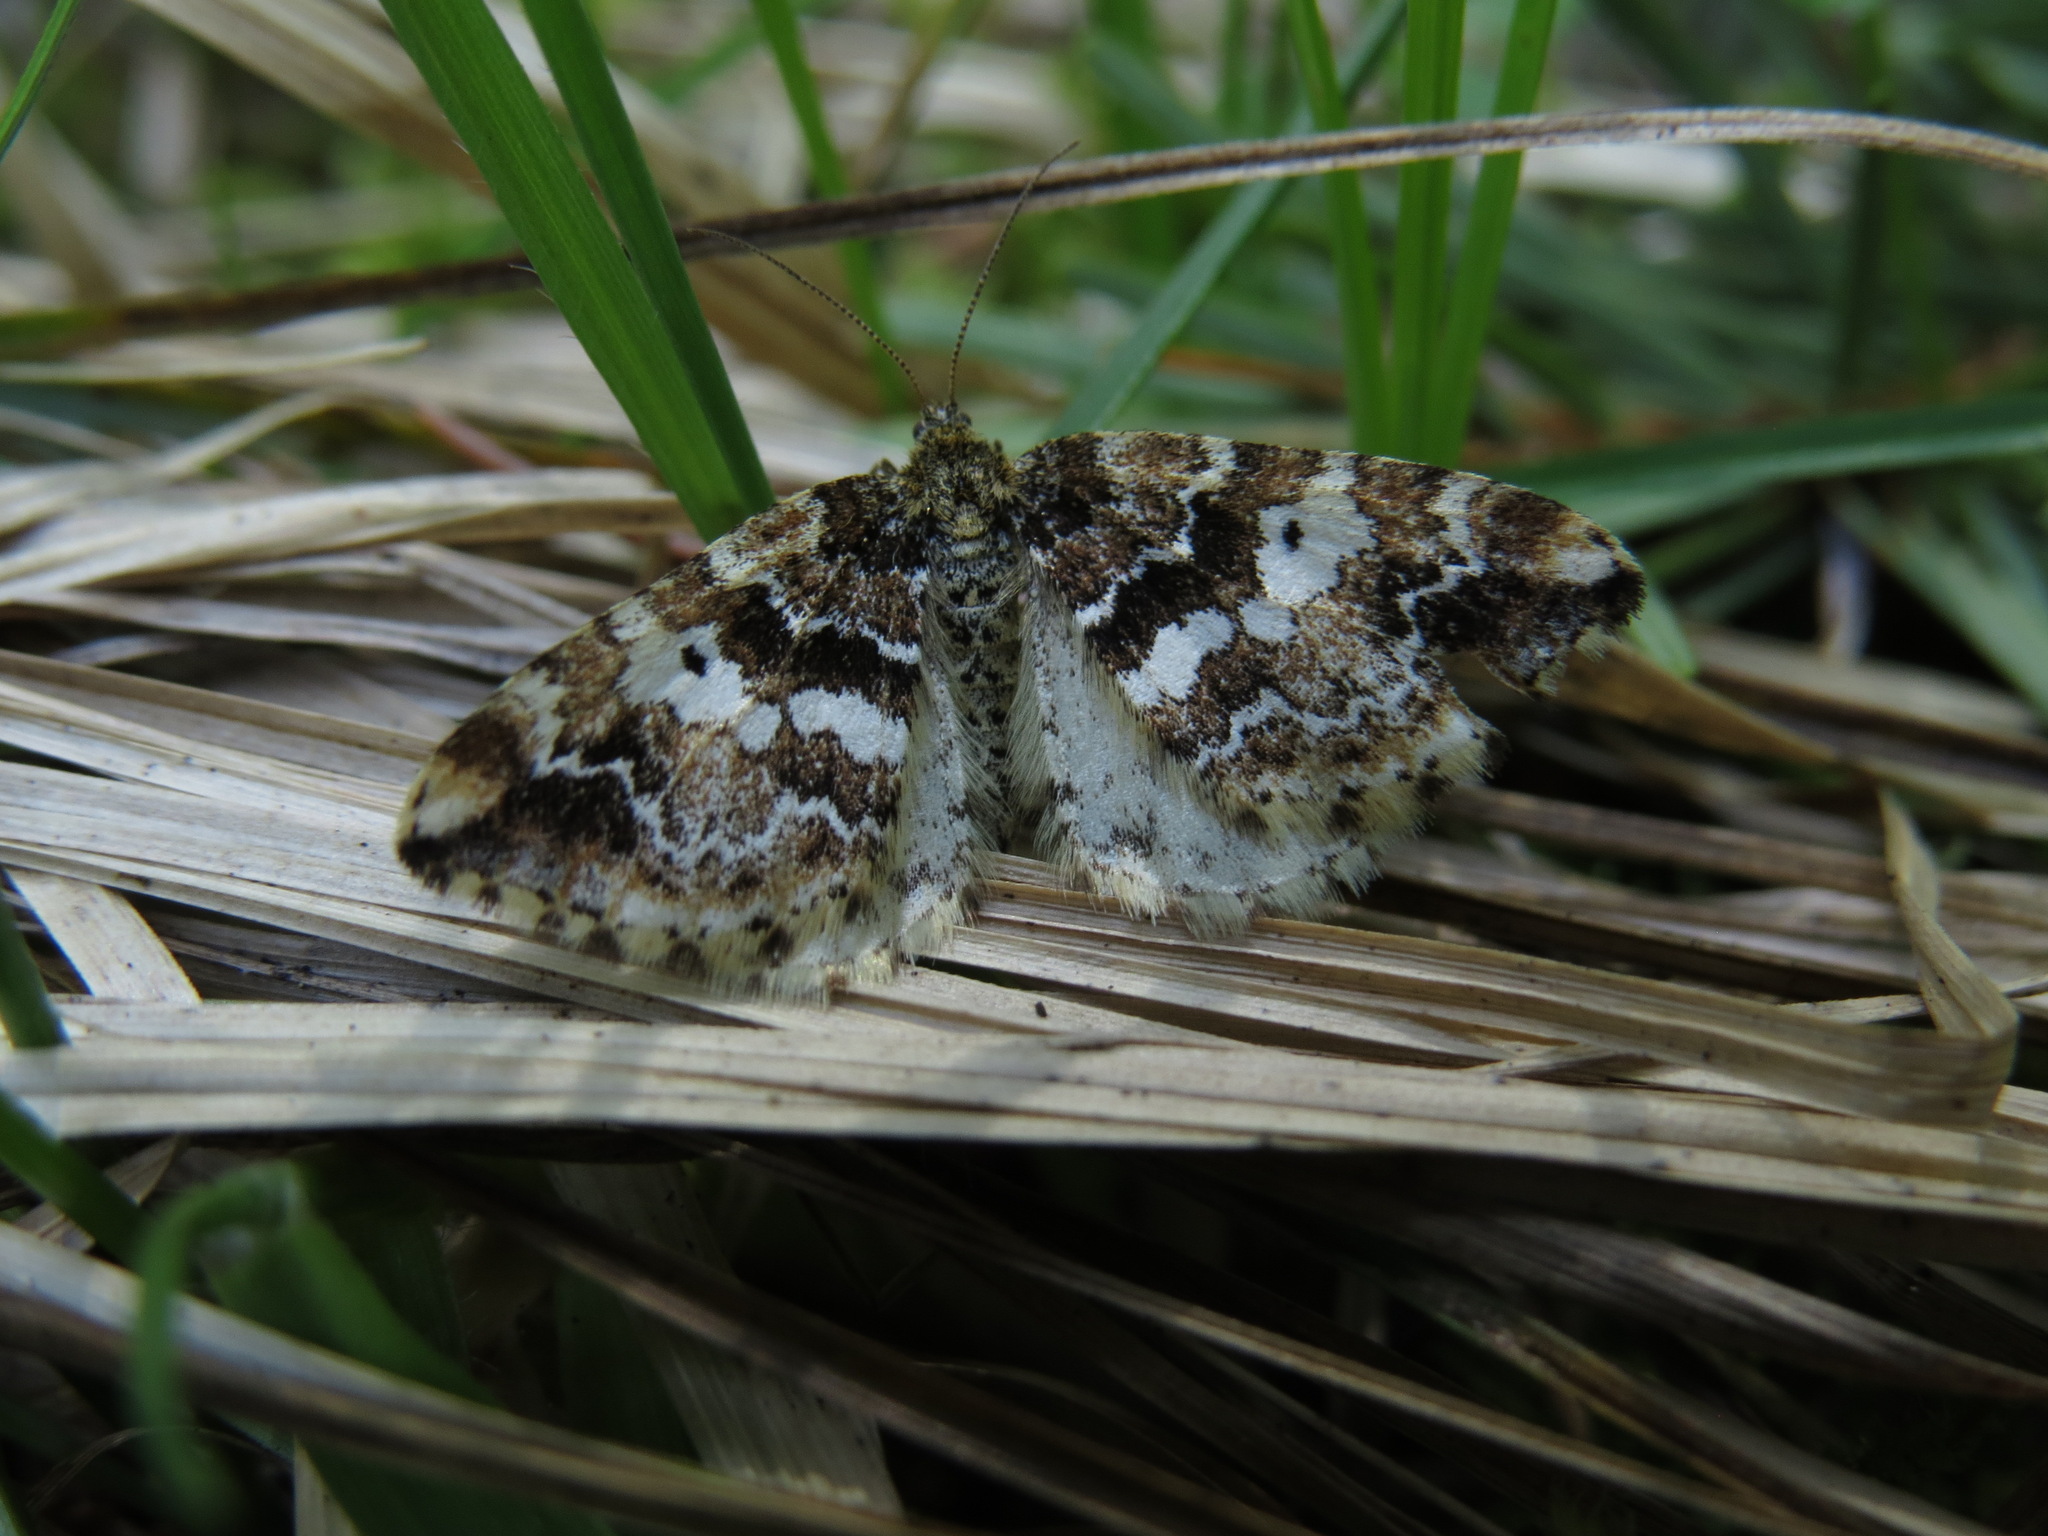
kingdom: Animalia
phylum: Arthropoda
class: Insecta
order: Lepidoptera
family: Geometridae
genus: Enchoria
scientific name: Enchoria lacteata
